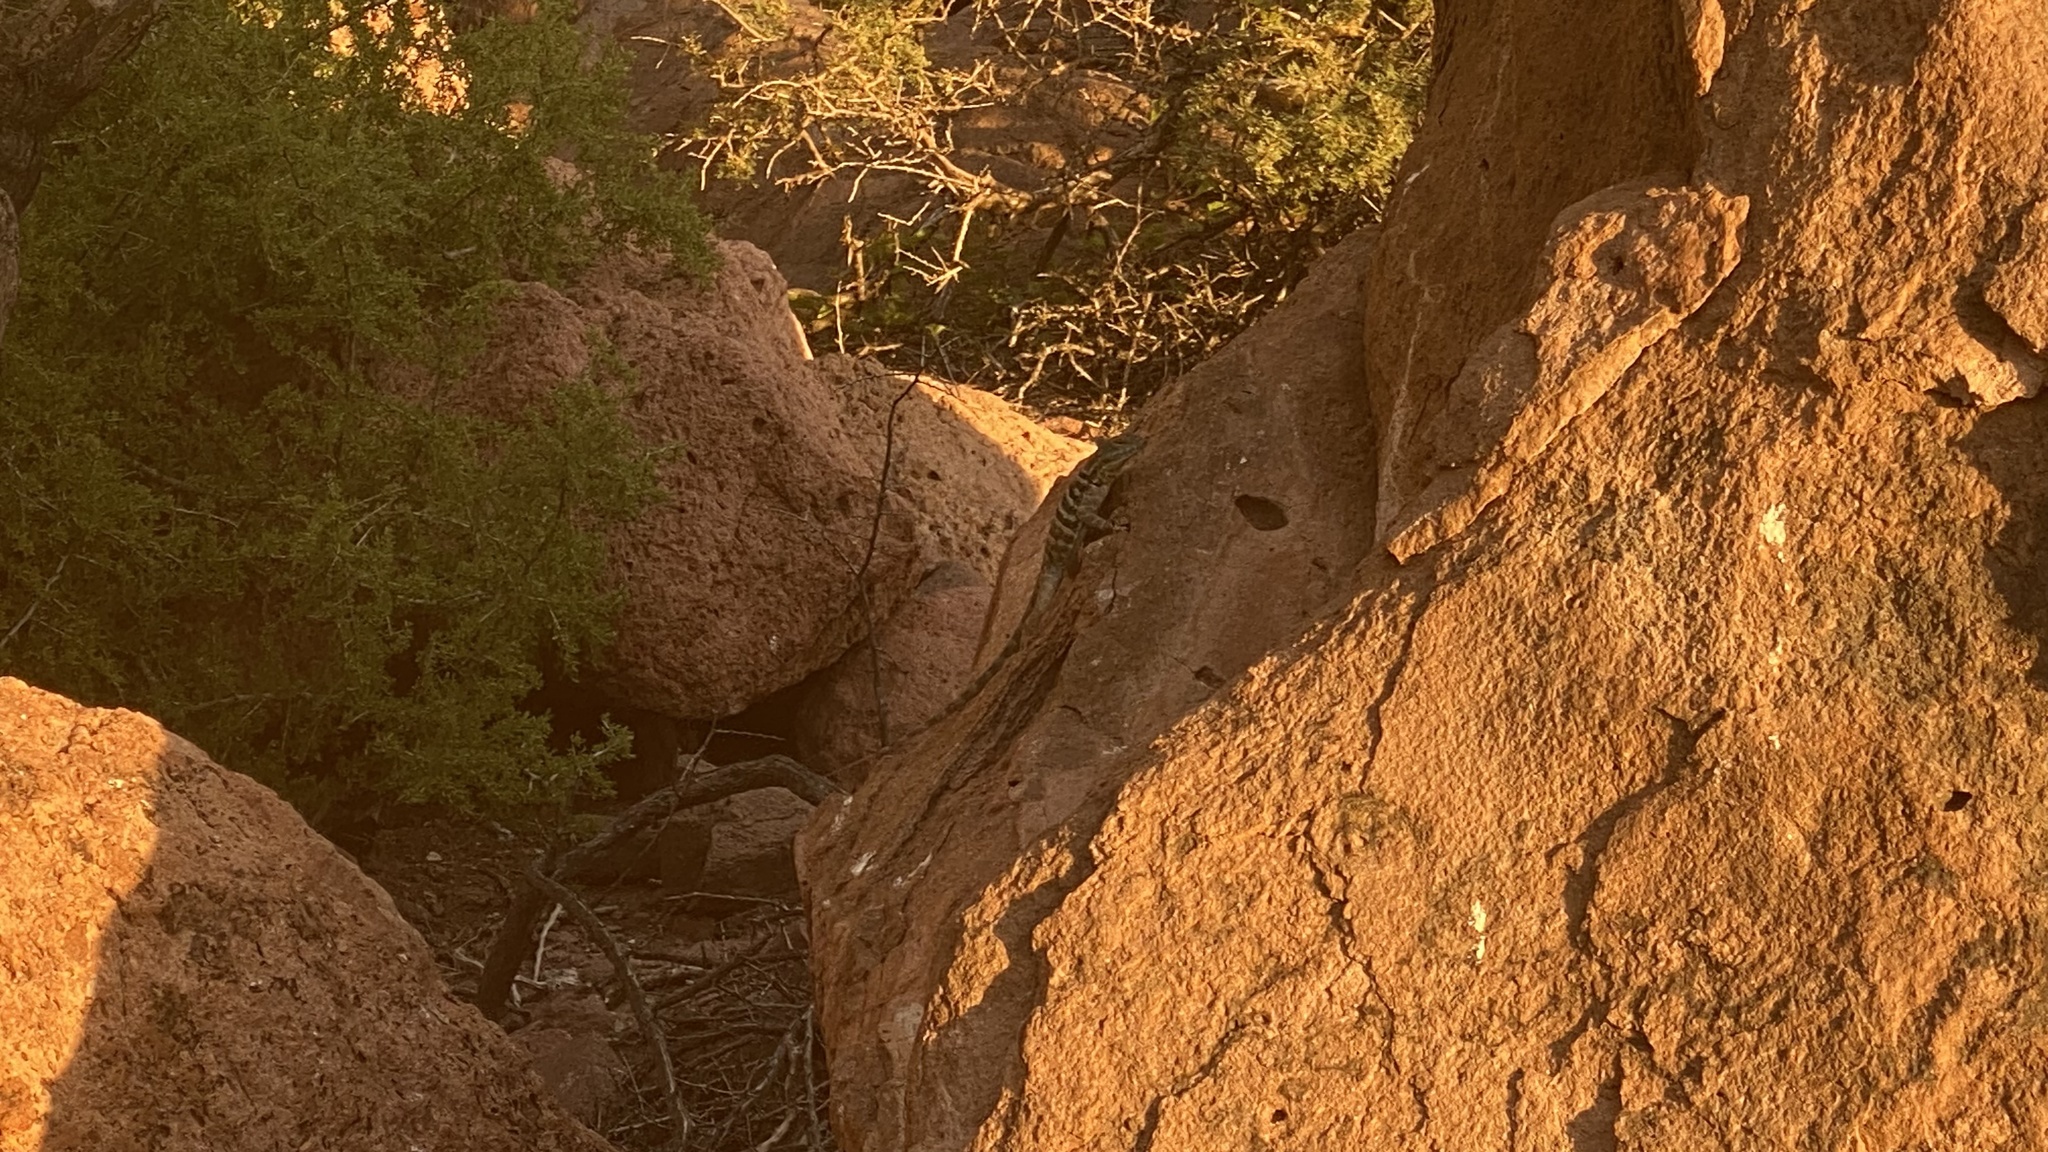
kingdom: Animalia
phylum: Chordata
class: Squamata
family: Phrynosomatidae
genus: Petrosaurus
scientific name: Petrosaurus thalassinus
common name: Baja california rock lizard
